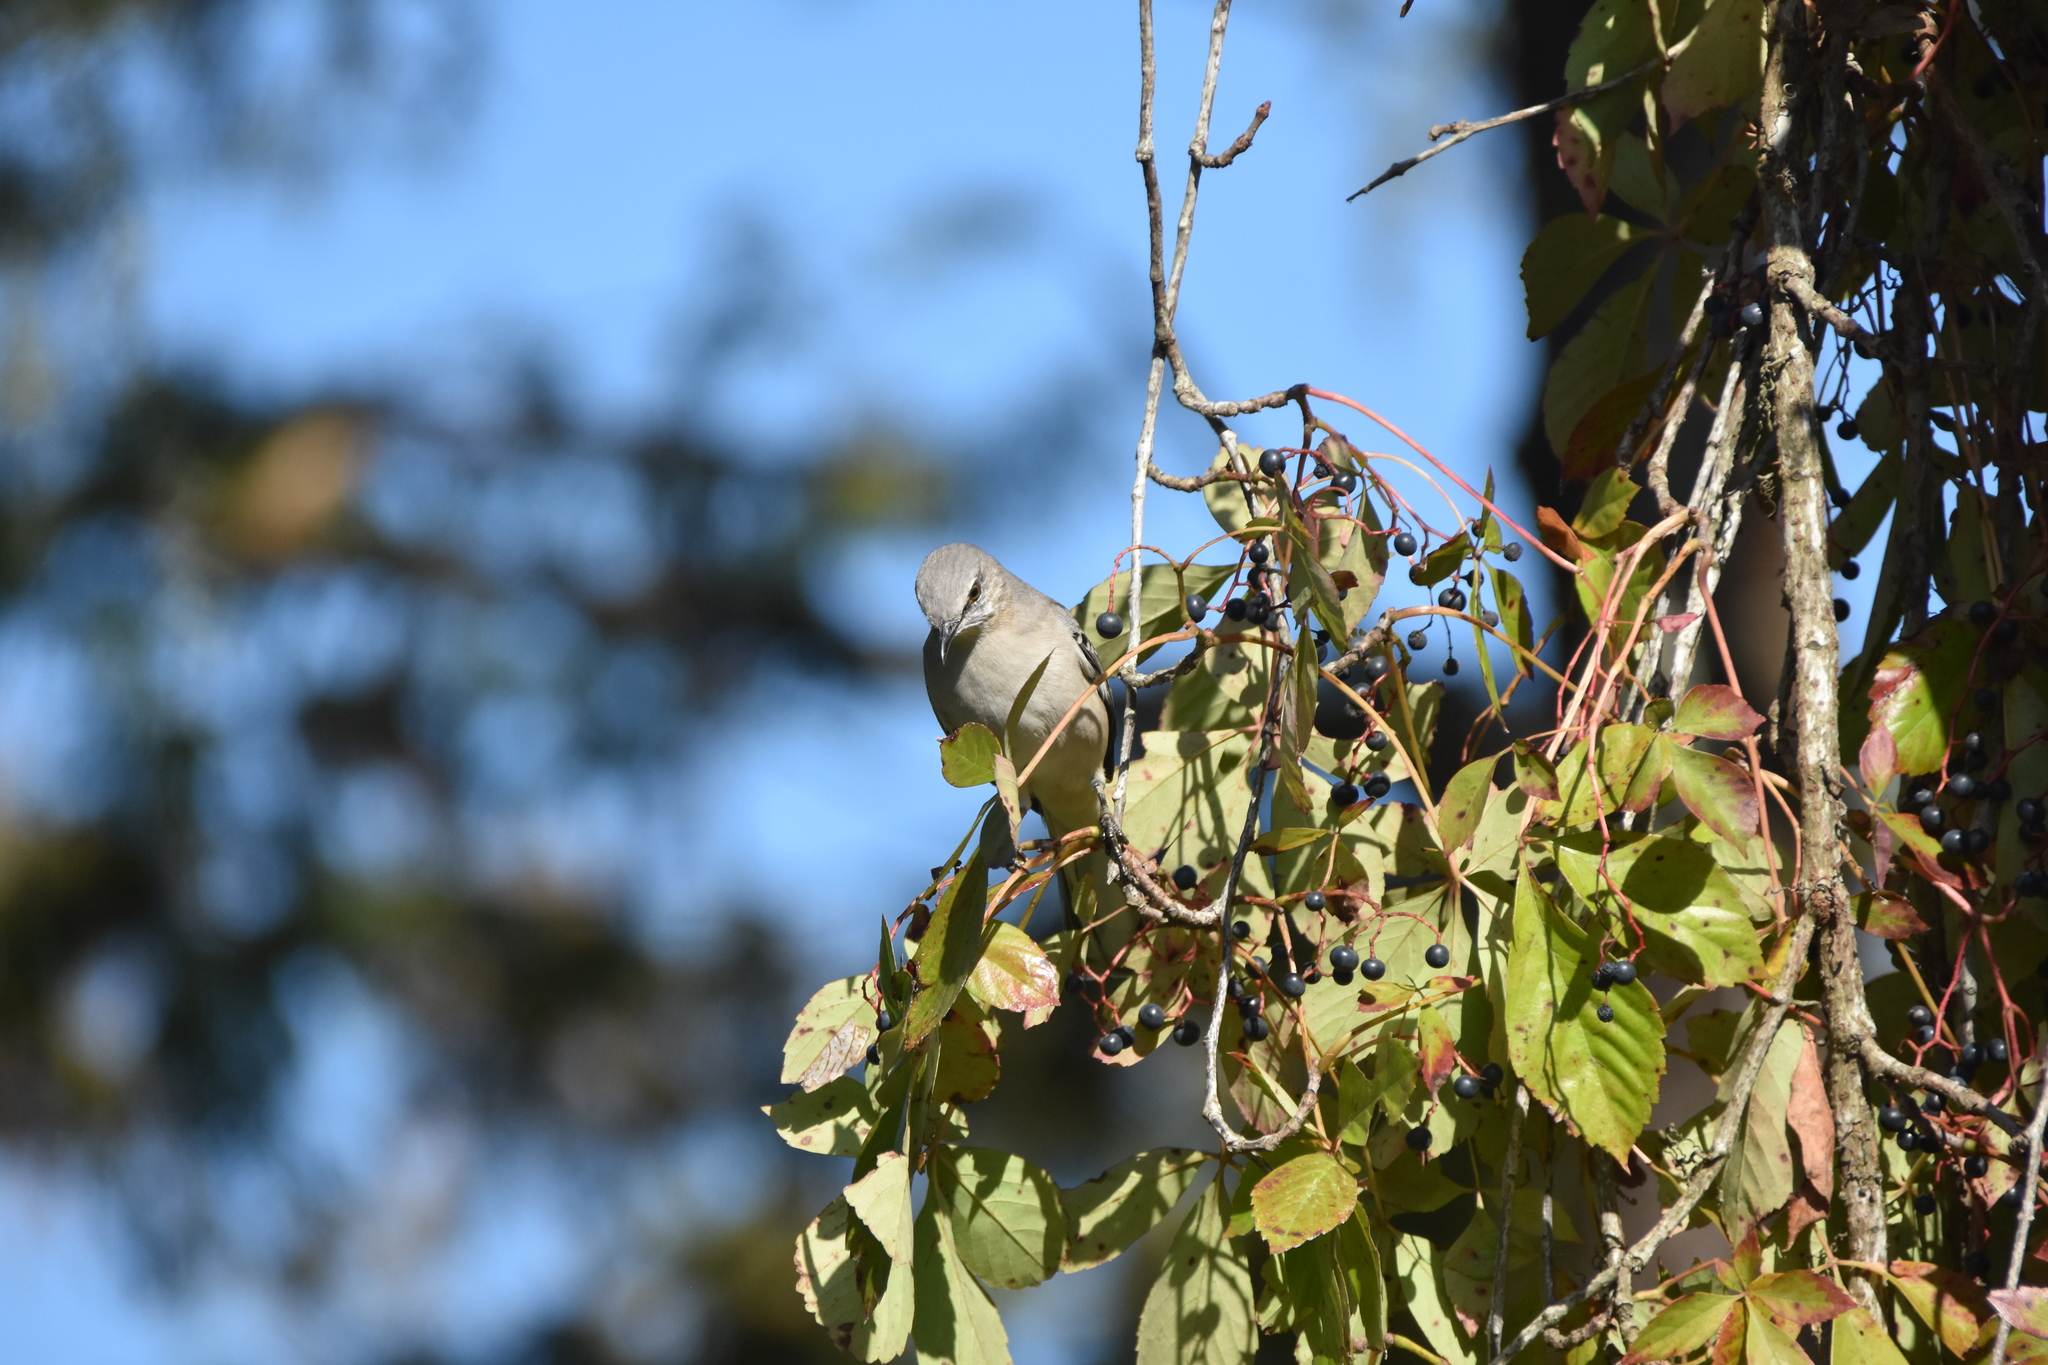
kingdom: Animalia
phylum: Chordata
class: Aves
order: Passeriformes
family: Mimidae
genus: Mimus
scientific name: Mimus polyglottos
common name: Northern mockingbird
